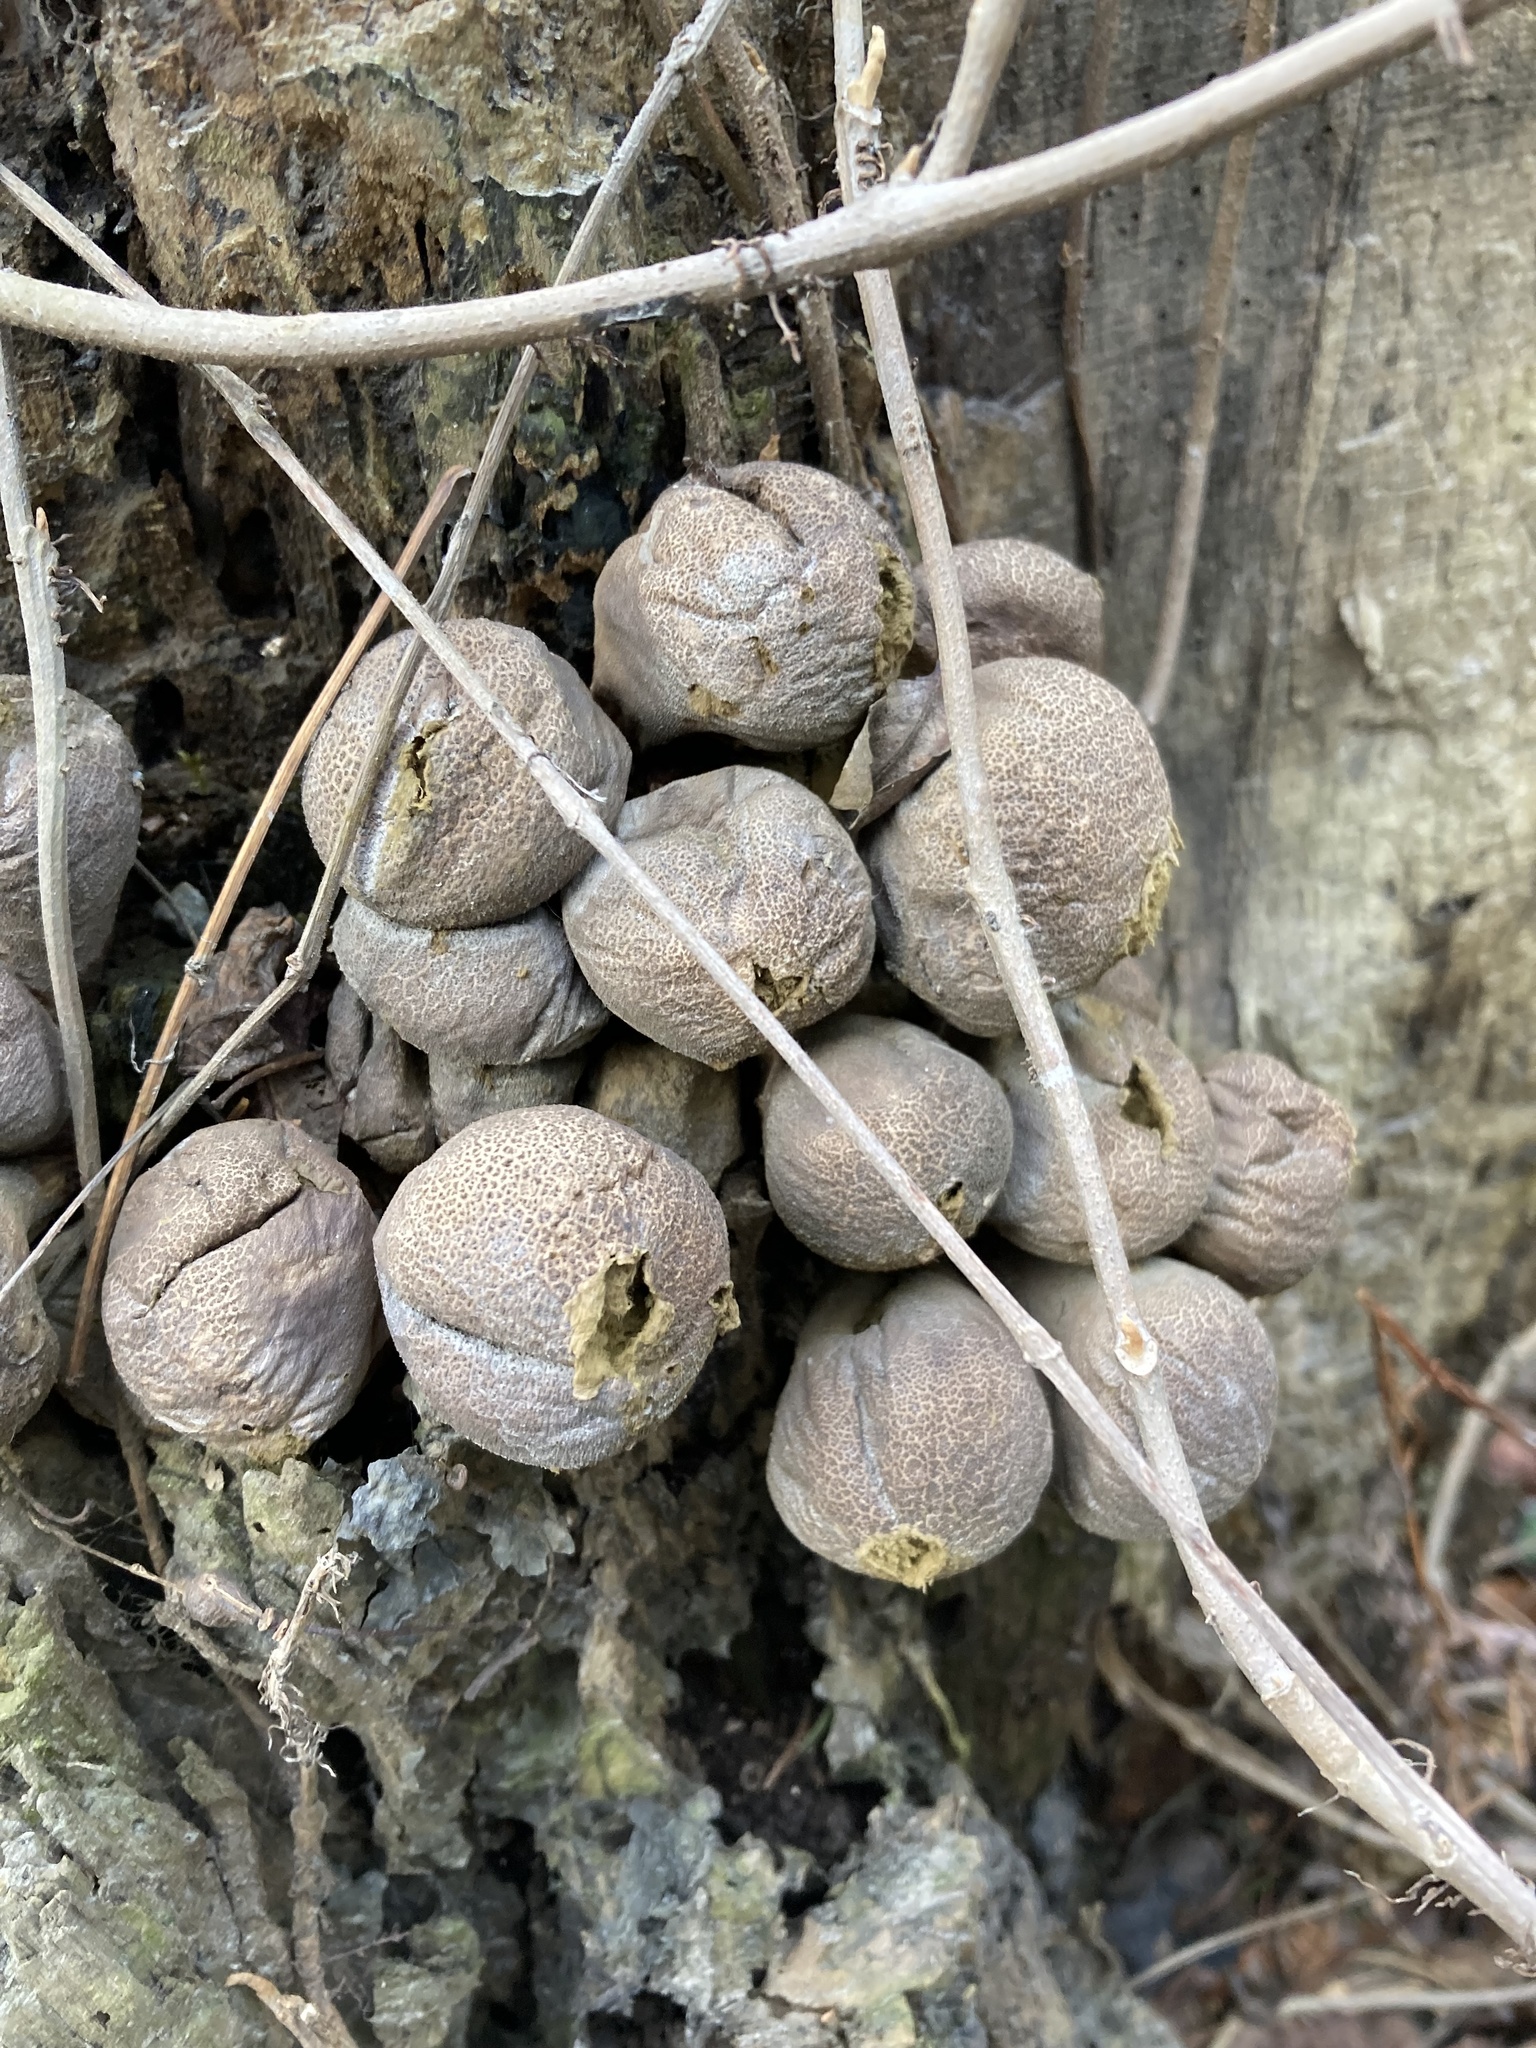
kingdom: Fungi
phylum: Basidiomycota
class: Agaricomycetes
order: Agaricales
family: Lycoperdaceae
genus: Apioperdon
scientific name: Apioperdon pyriforme
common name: Pear-shaped puffball
